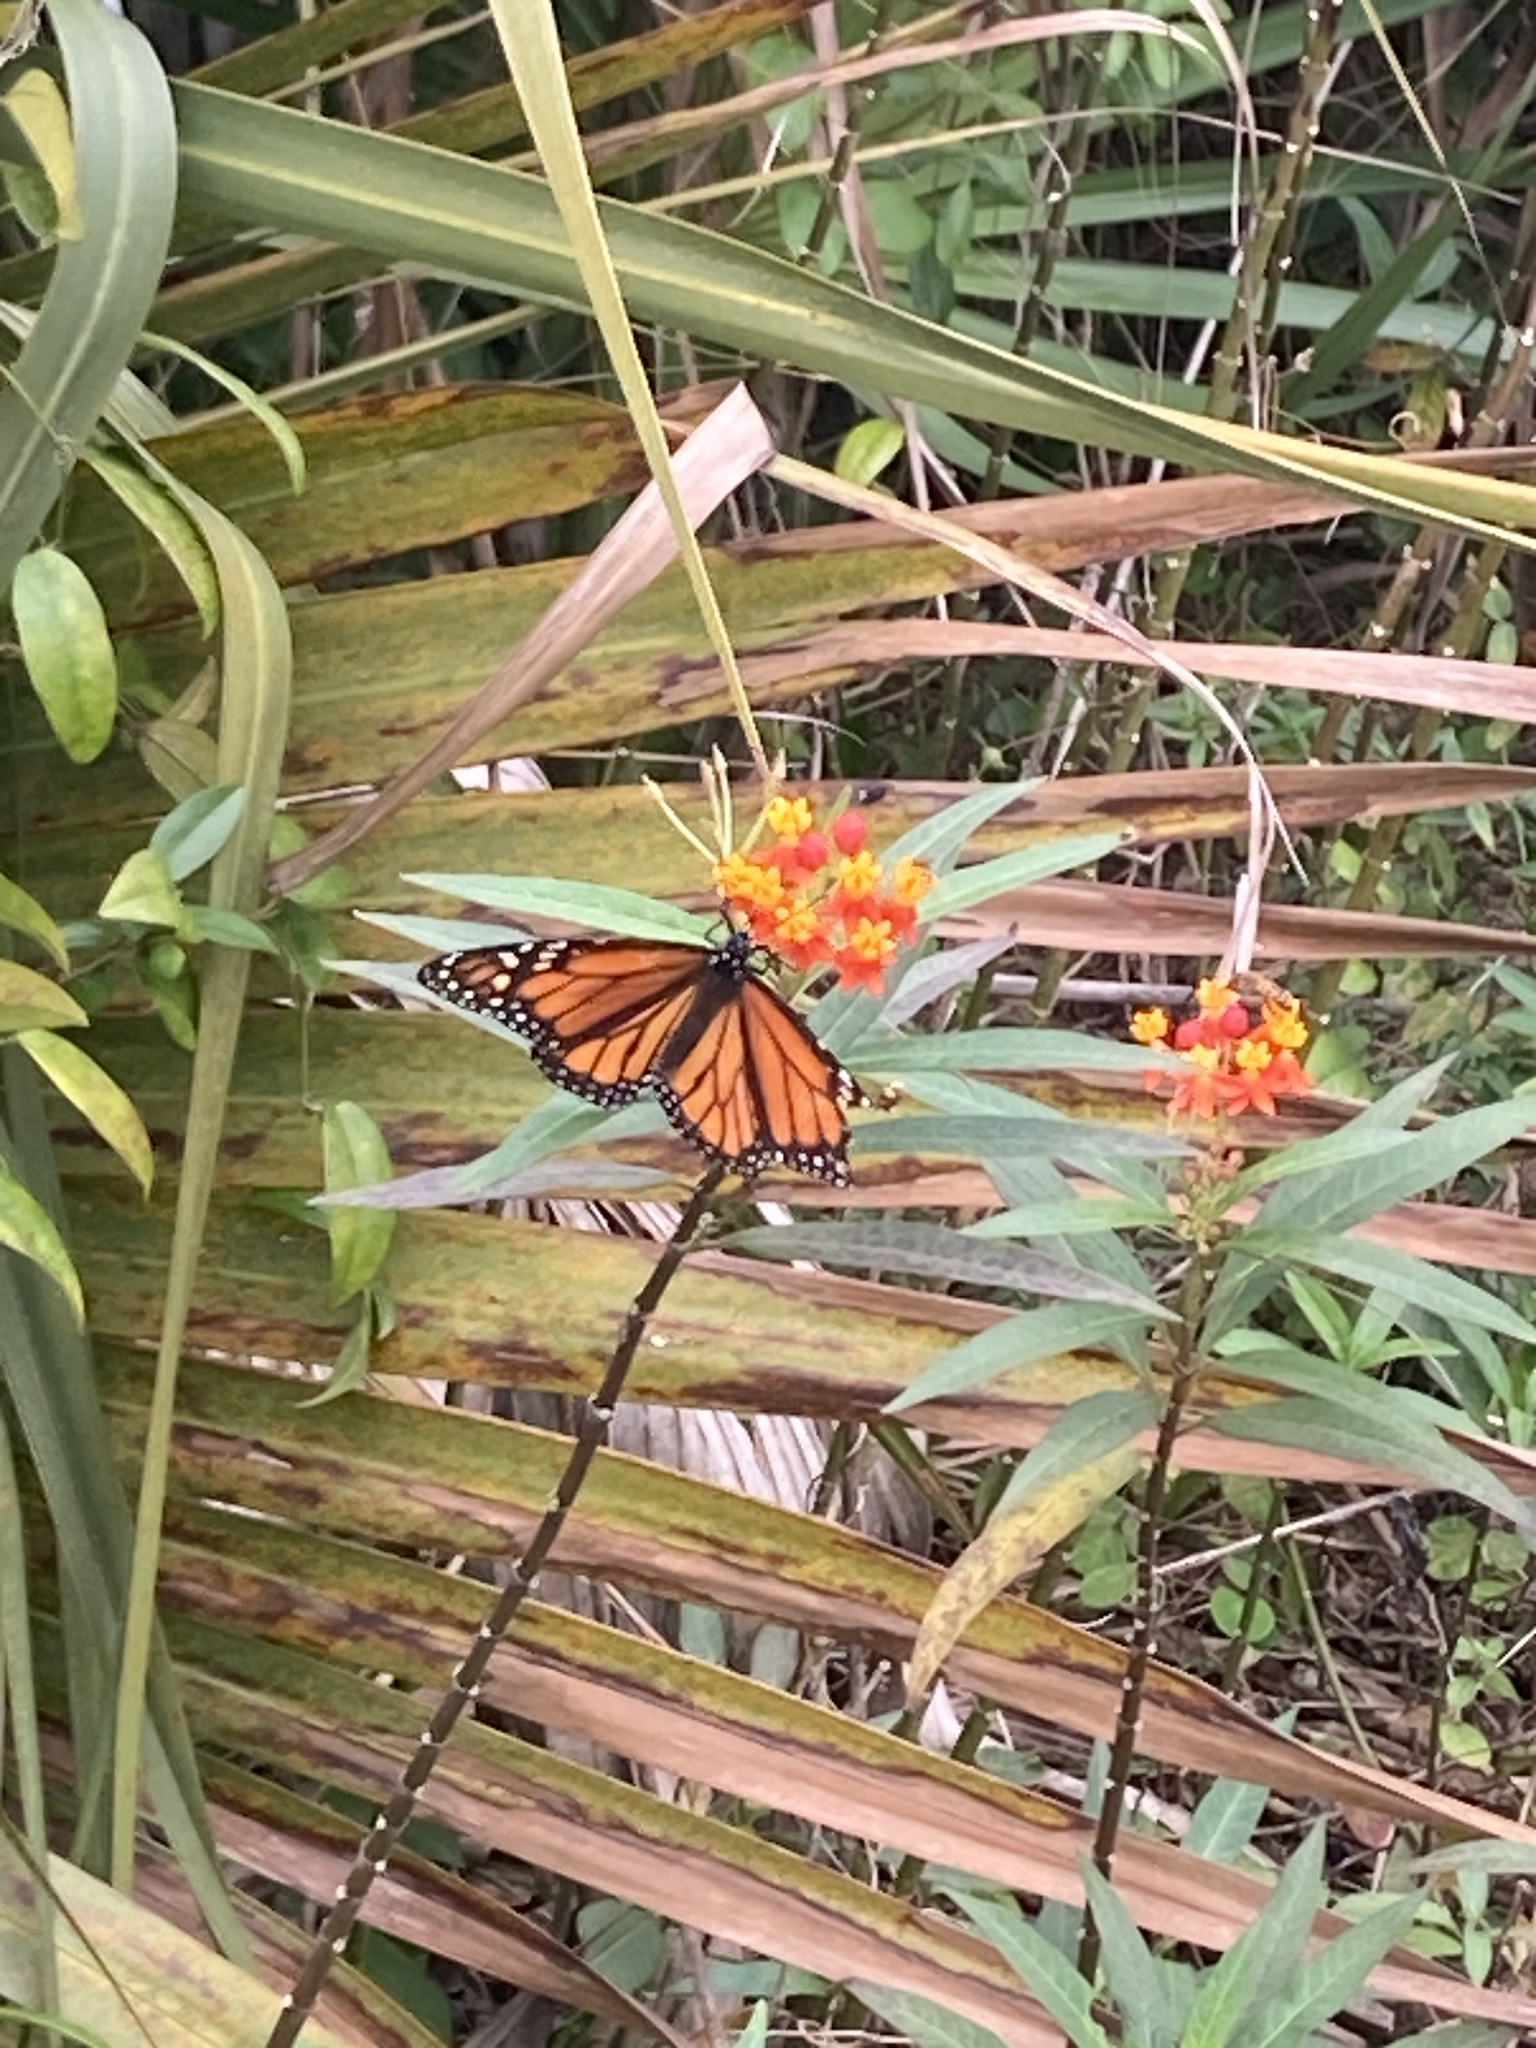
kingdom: Animalia
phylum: Arthropoda
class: Insecta
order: Lepidoptera
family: Nymphalidae
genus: Danaus
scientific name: Danaus plexippus
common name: Monarch
